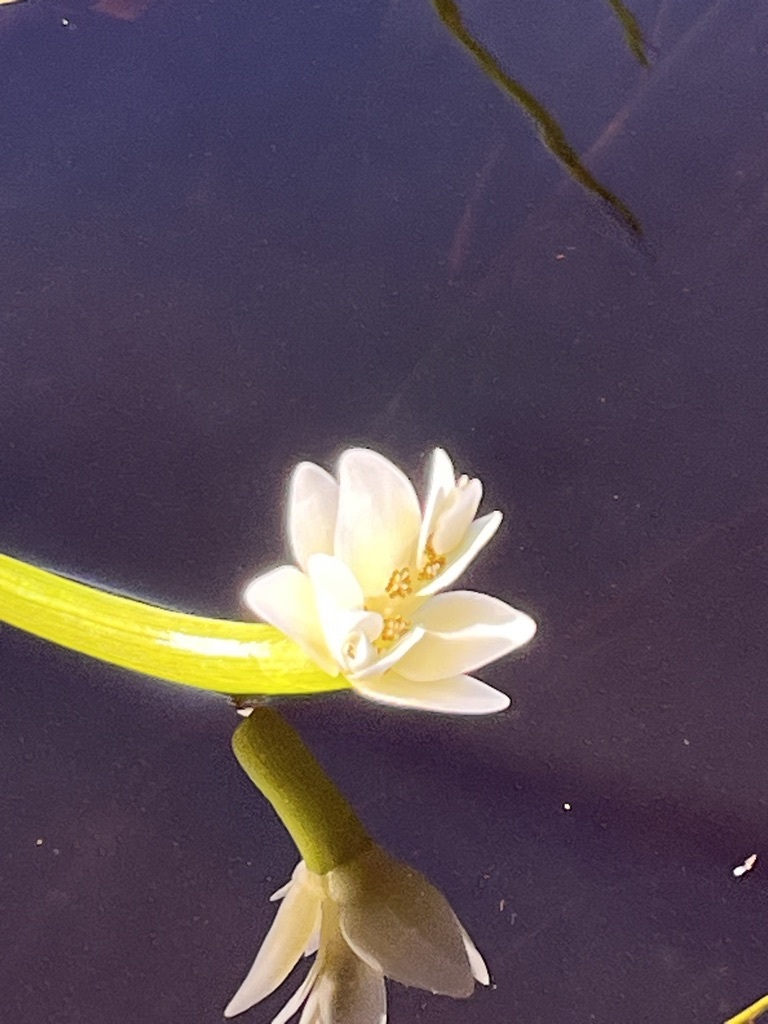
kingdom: Plantae
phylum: Tracheophyta
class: Liliopsida
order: Alismatales
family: Aponogetonaceae
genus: Aponogeton
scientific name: Aponogeton distachyos
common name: Cape-pondweed
